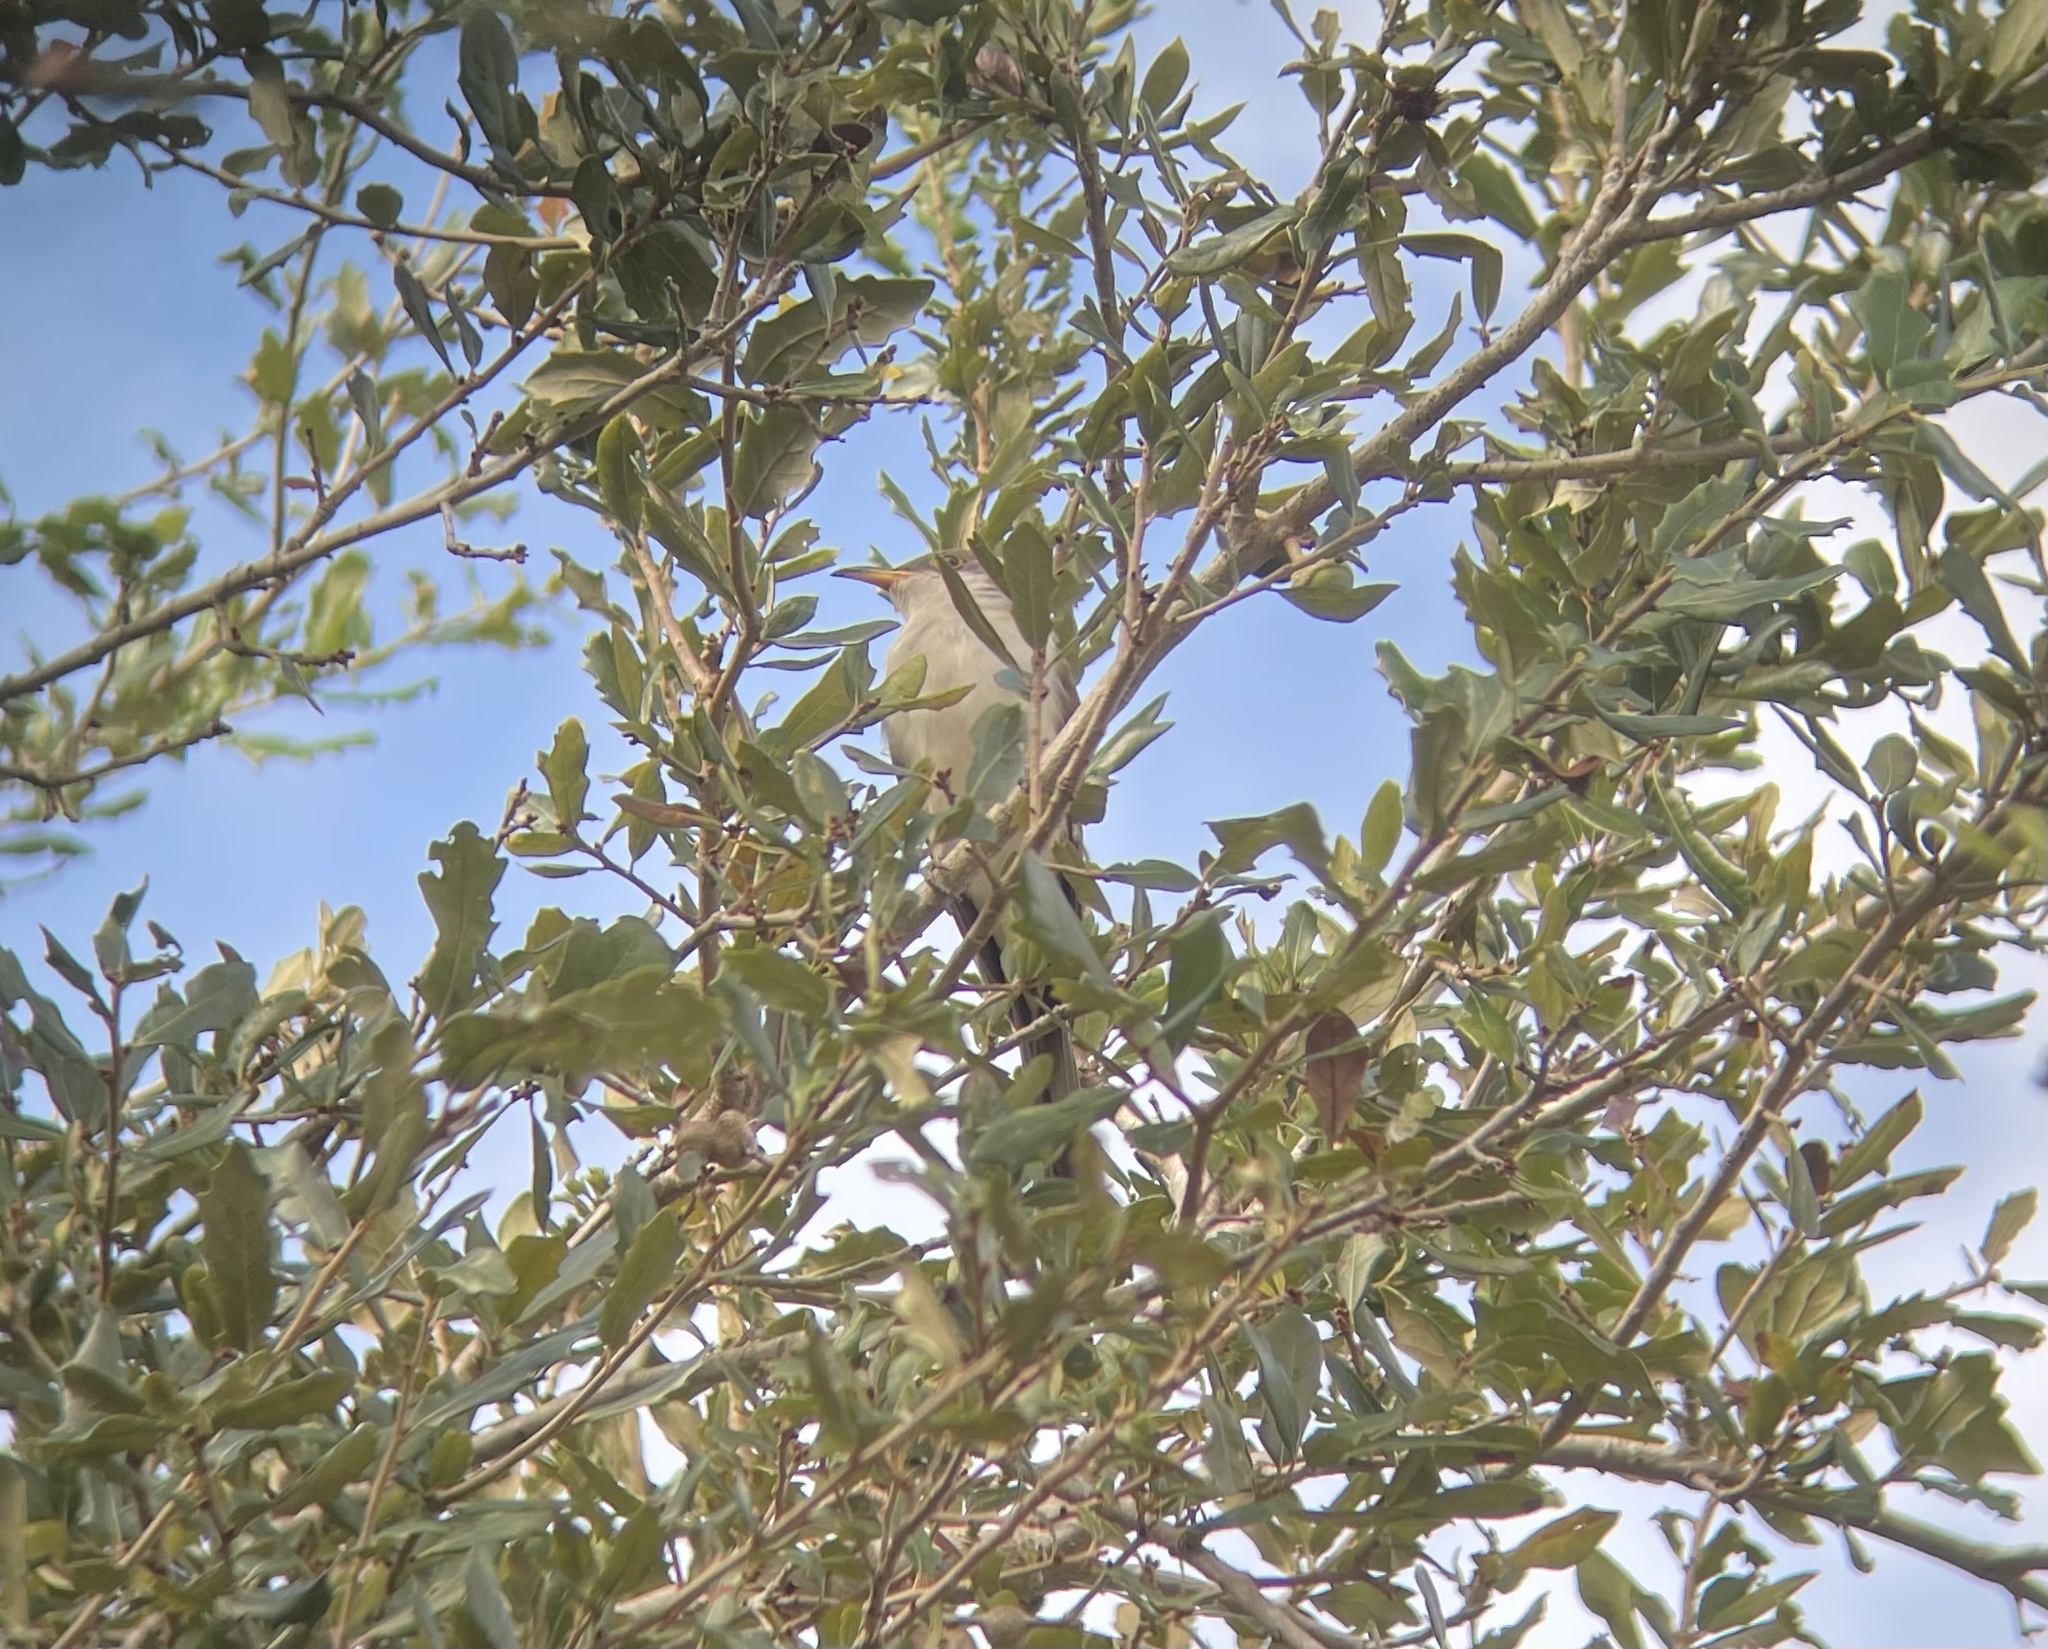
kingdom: Animalia
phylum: Chordata
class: Aves
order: Cuculiformes
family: Cuculidae
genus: Coccyzus
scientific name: Coccyzus americanus
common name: Yellow-billed cuckoo
